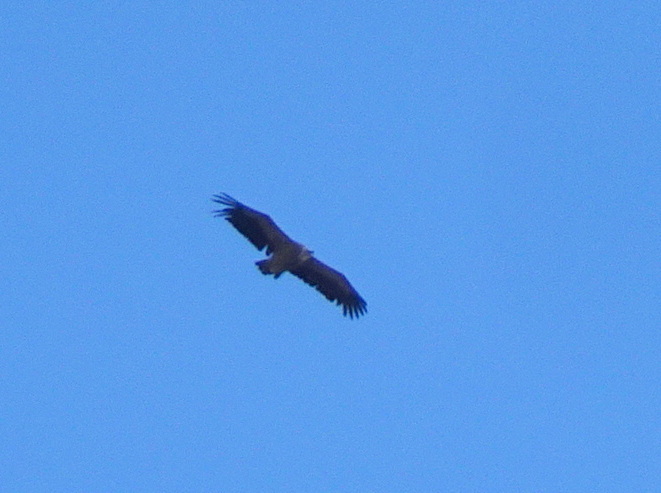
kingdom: Animalia
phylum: Chordata
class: Aves
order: Accipitriformes
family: Accipitridae
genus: Gyps
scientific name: Gyps fulvus
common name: Griffon vulture
